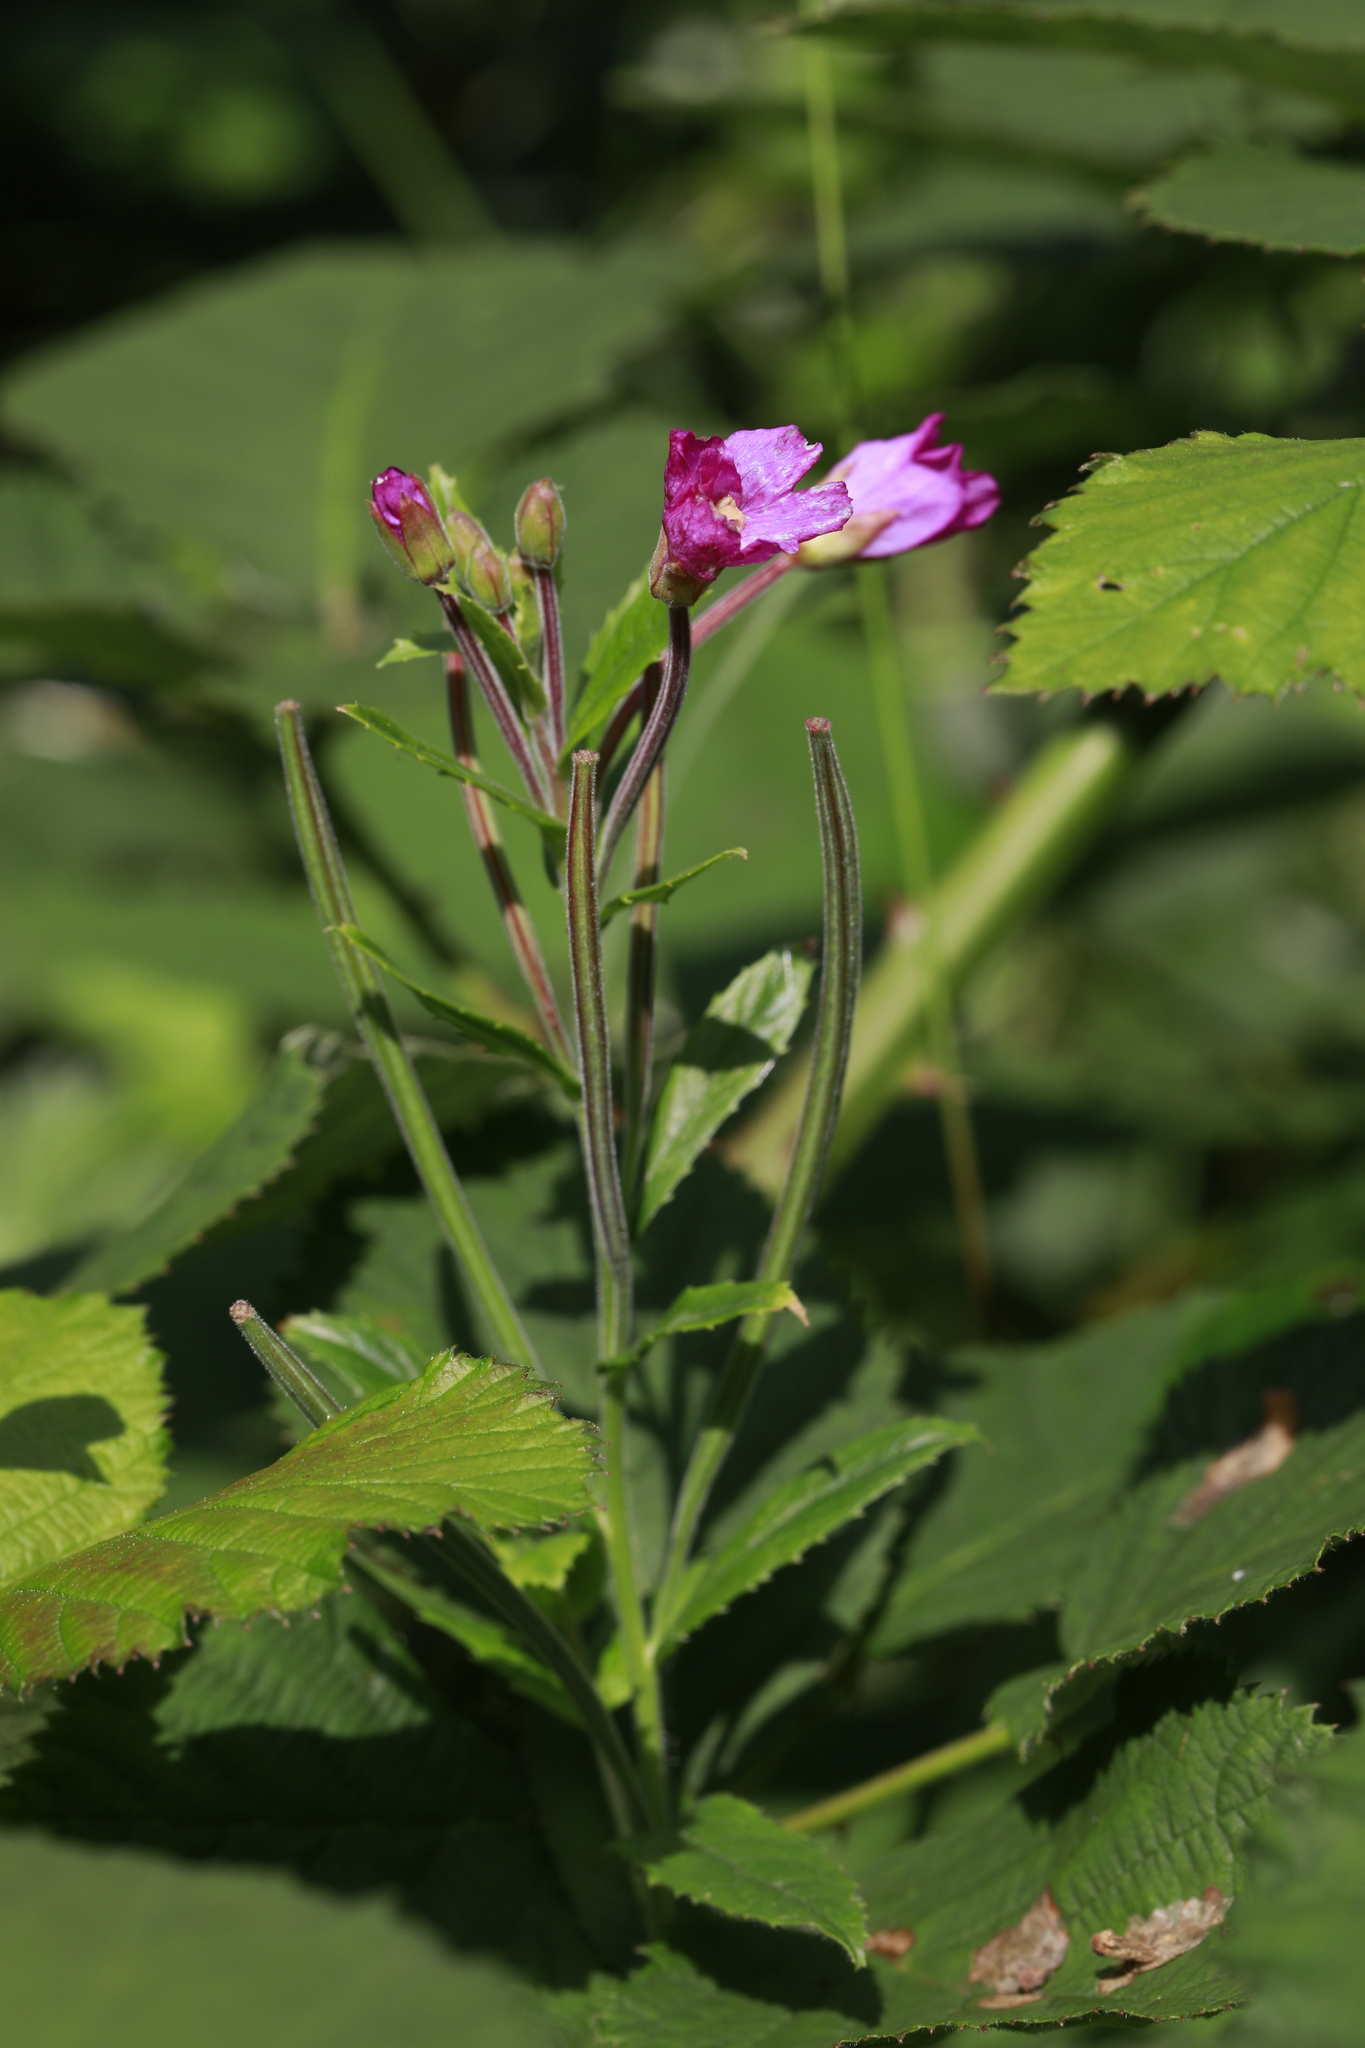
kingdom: Plantae
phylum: Tracheophyta
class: Magnoliopsida
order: Myrtales
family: Onagraceae
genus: Epilobium
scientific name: Epilobium hirsutum
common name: Great willowherb
